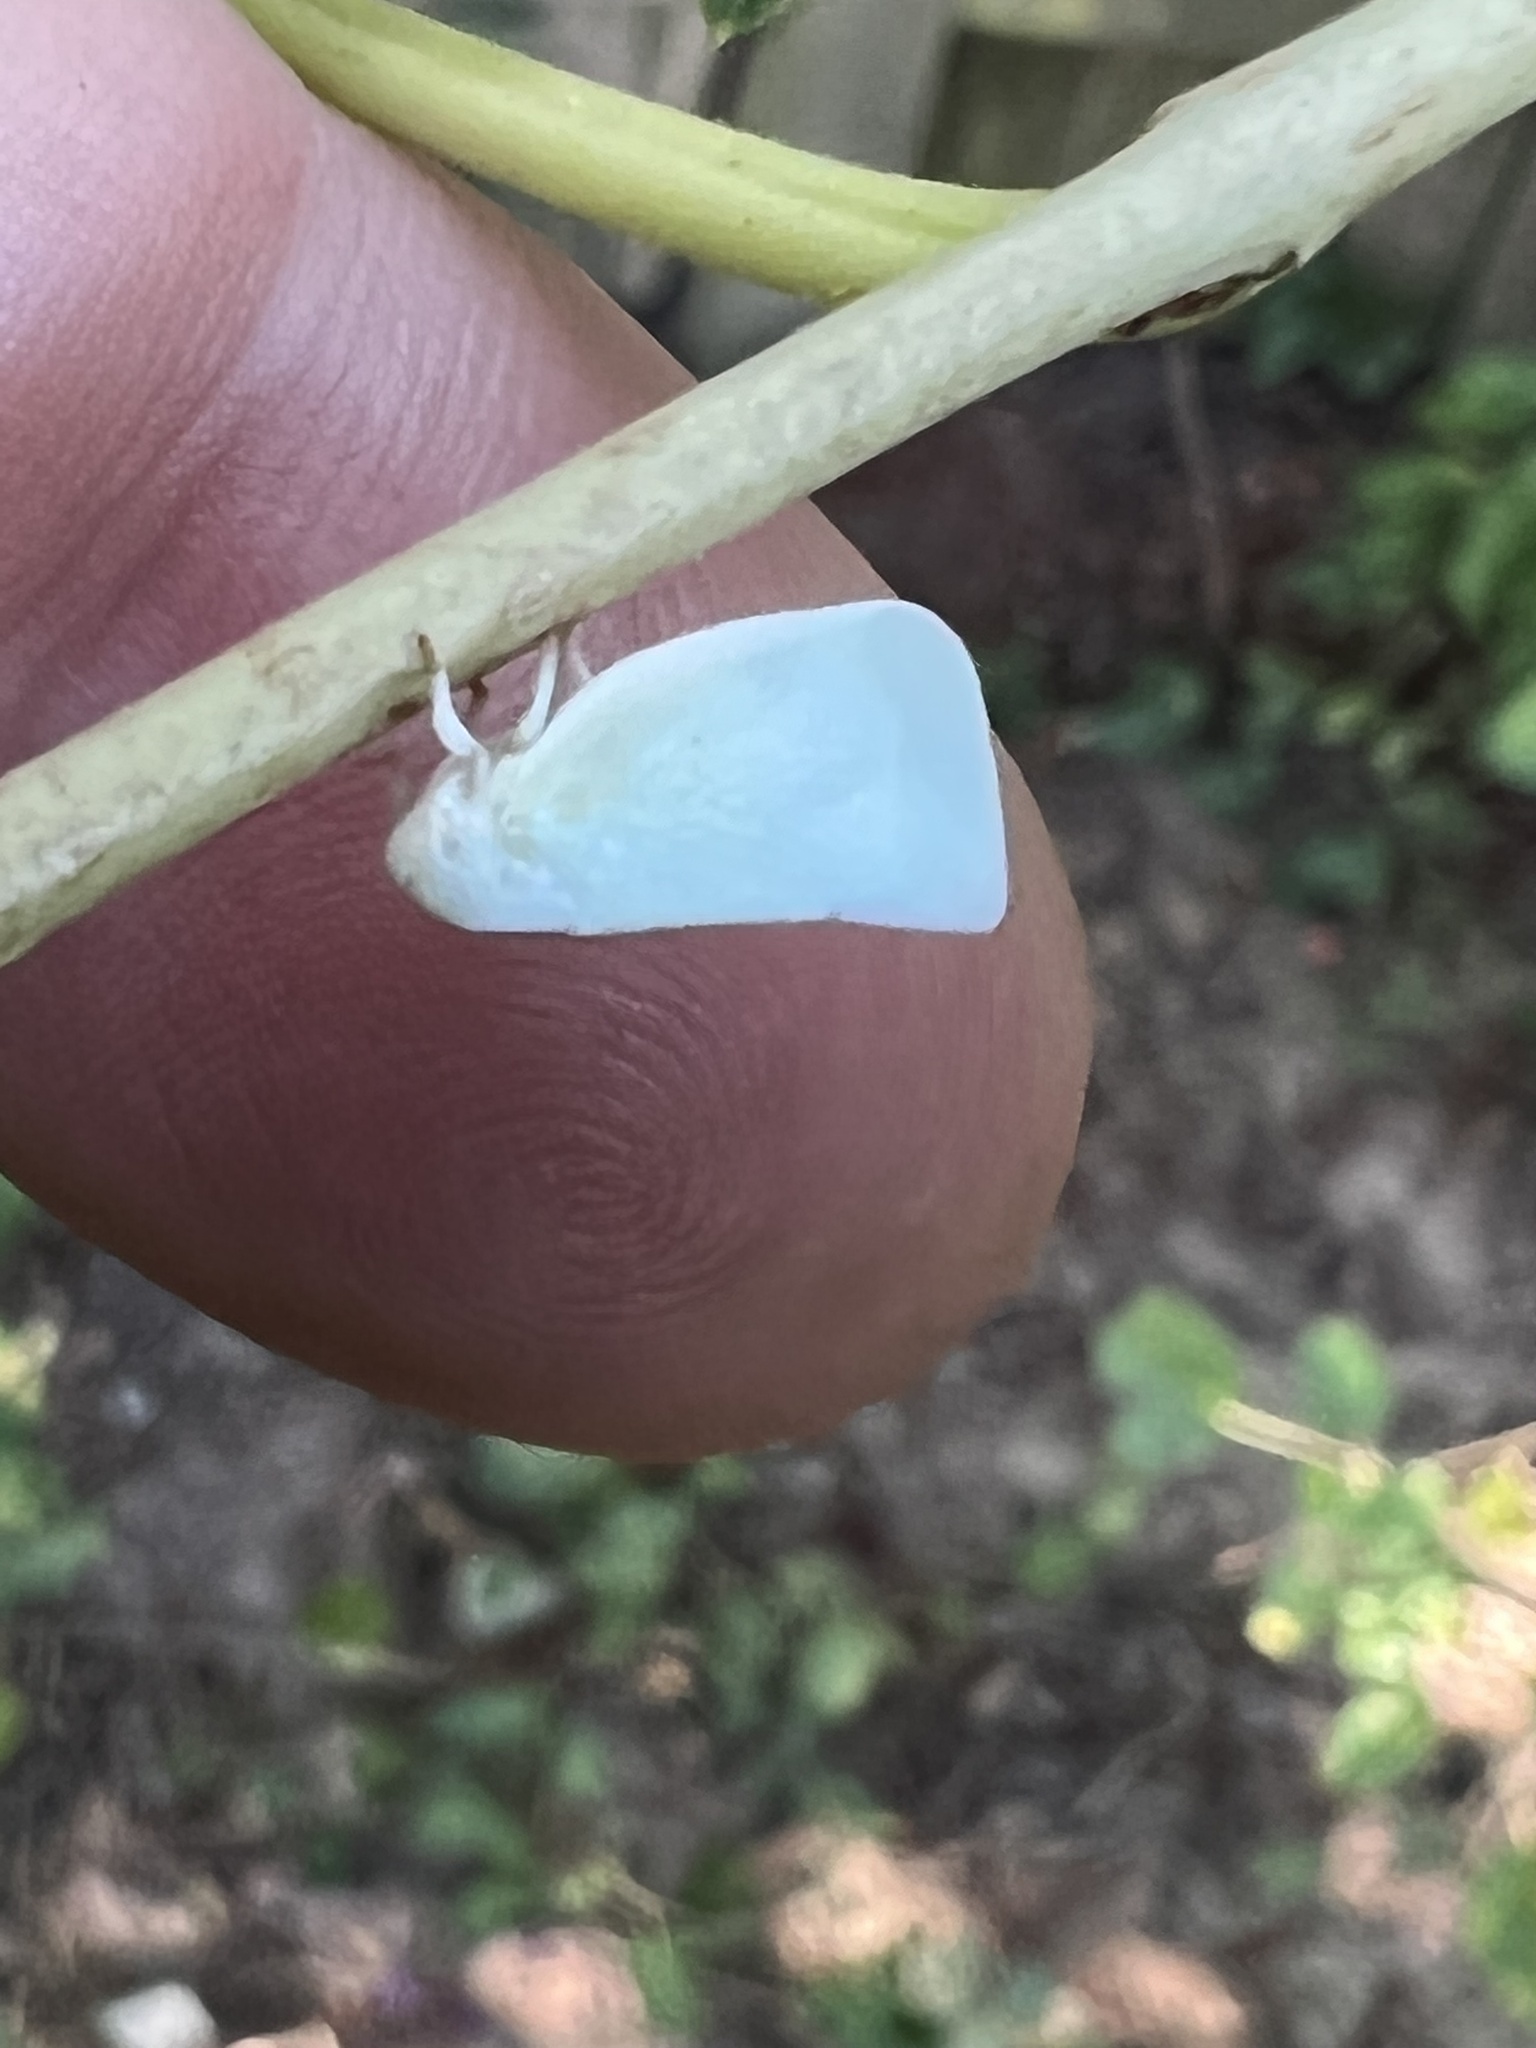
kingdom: Animalia
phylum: Arthropoda
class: Insecta
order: Hemiptera
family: Flatidae
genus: Flatormenis
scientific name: Flatormenis proxima
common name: Northern flatid planthopper
